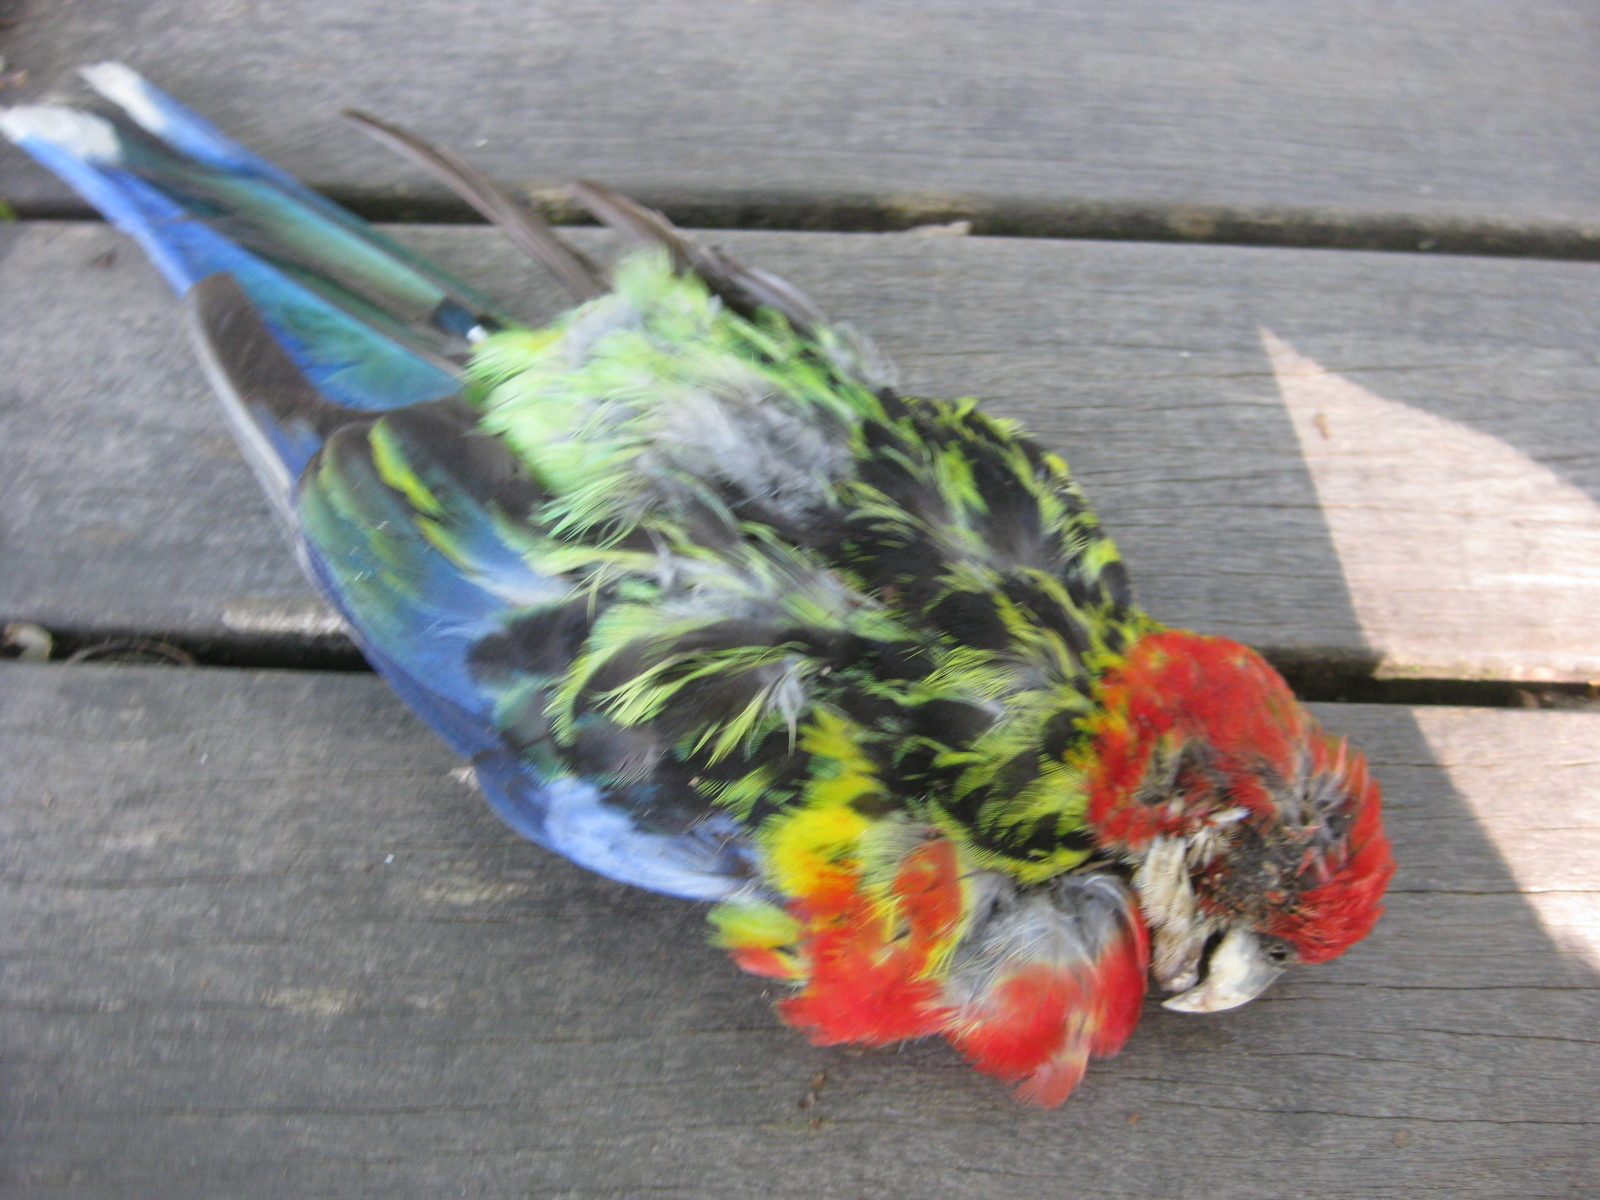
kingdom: Animalia
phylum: Chordata
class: Aves
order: Psittaciformes
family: Psittacidae
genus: Platycercus
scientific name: Platycercus eximius
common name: Eastern rosella
